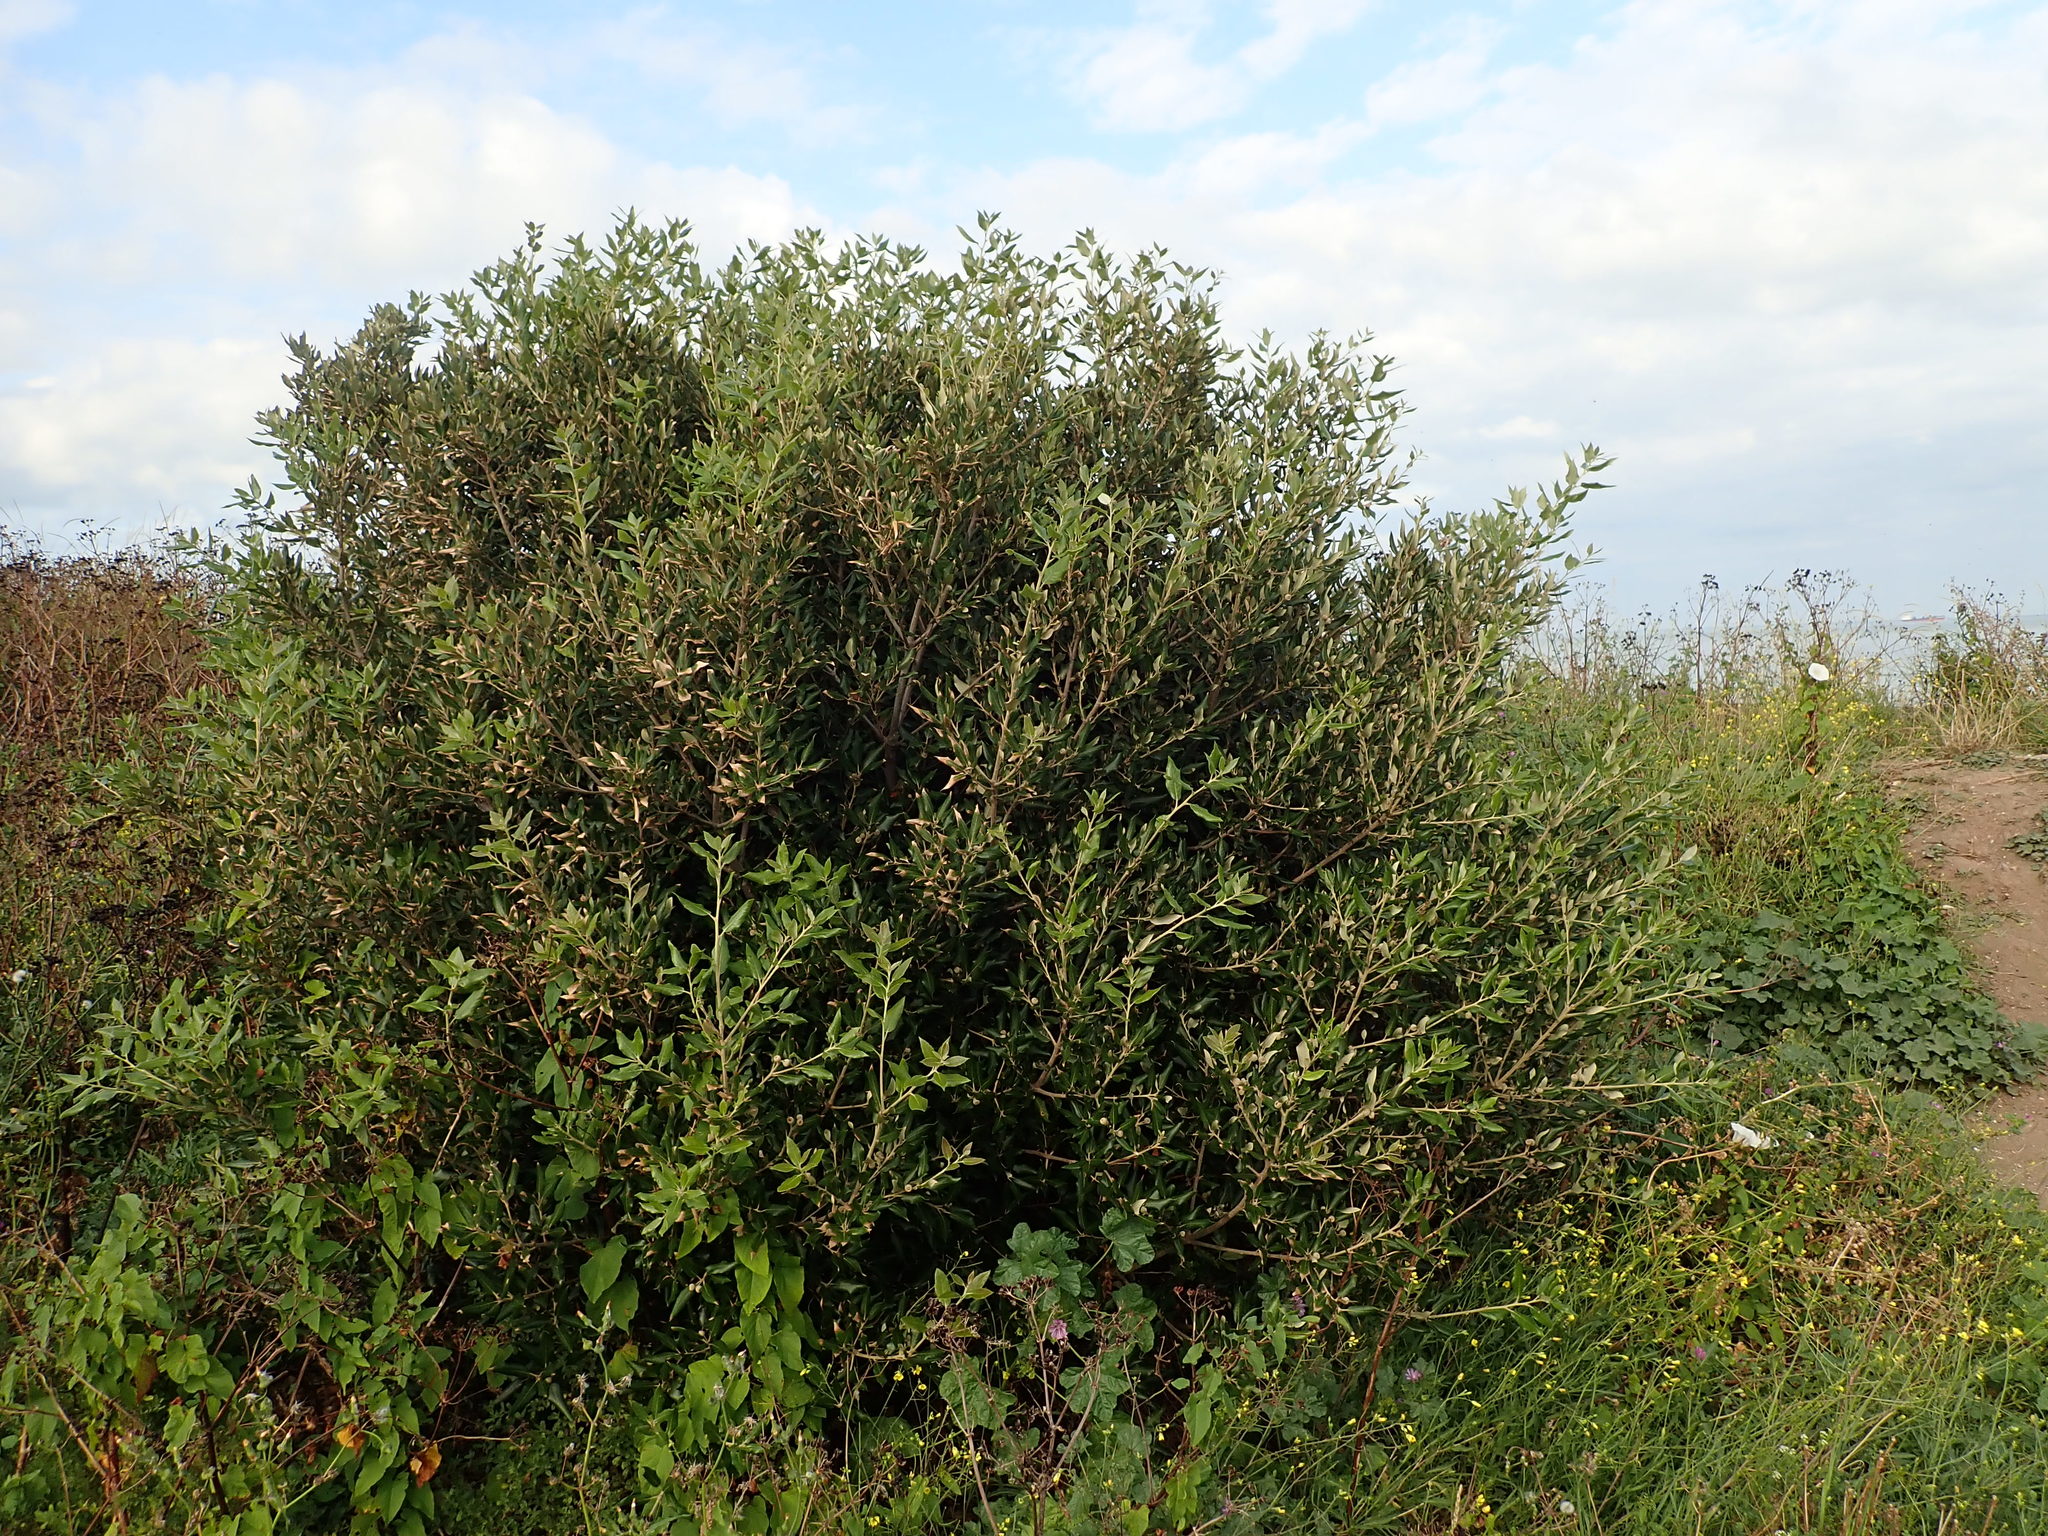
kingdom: Plantae
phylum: Tracheophyta
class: Magnoliopsida
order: Fagales
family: Fagaceae
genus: Quercus
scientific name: Quercus ilex
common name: Evergreen oak
